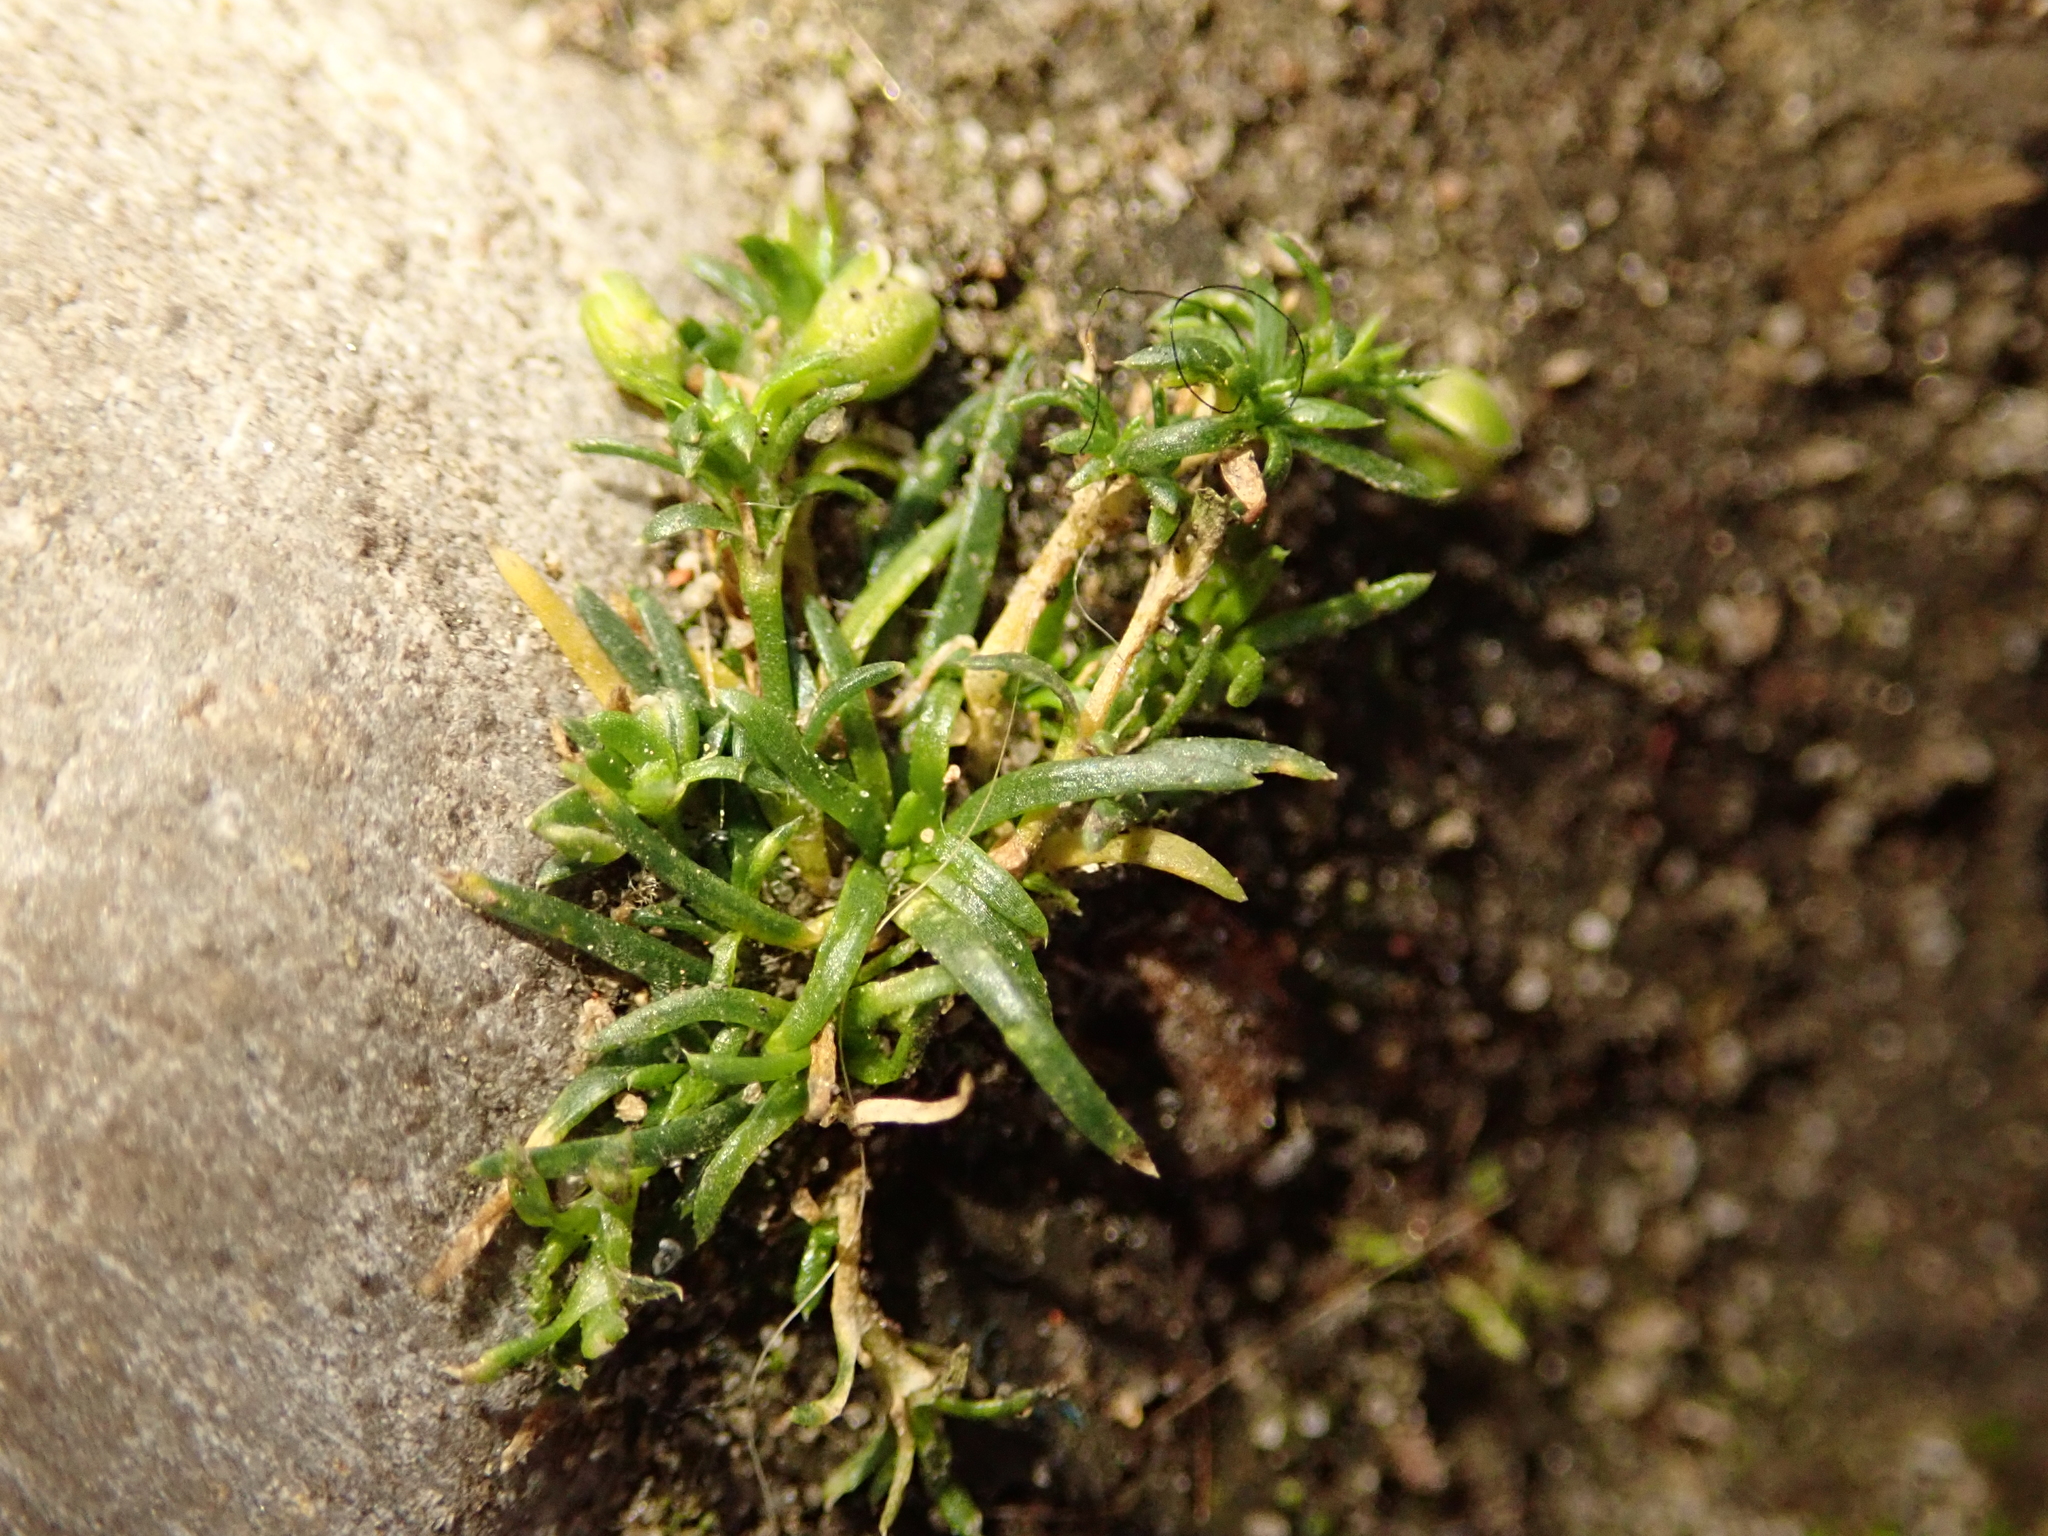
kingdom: Plantae
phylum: Tracheophyta
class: Magnoliopsida
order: Caryophyllales
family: Caryophyllaceae
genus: Sagina
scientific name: Sagina procumbens
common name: Procumbent pearlwort
